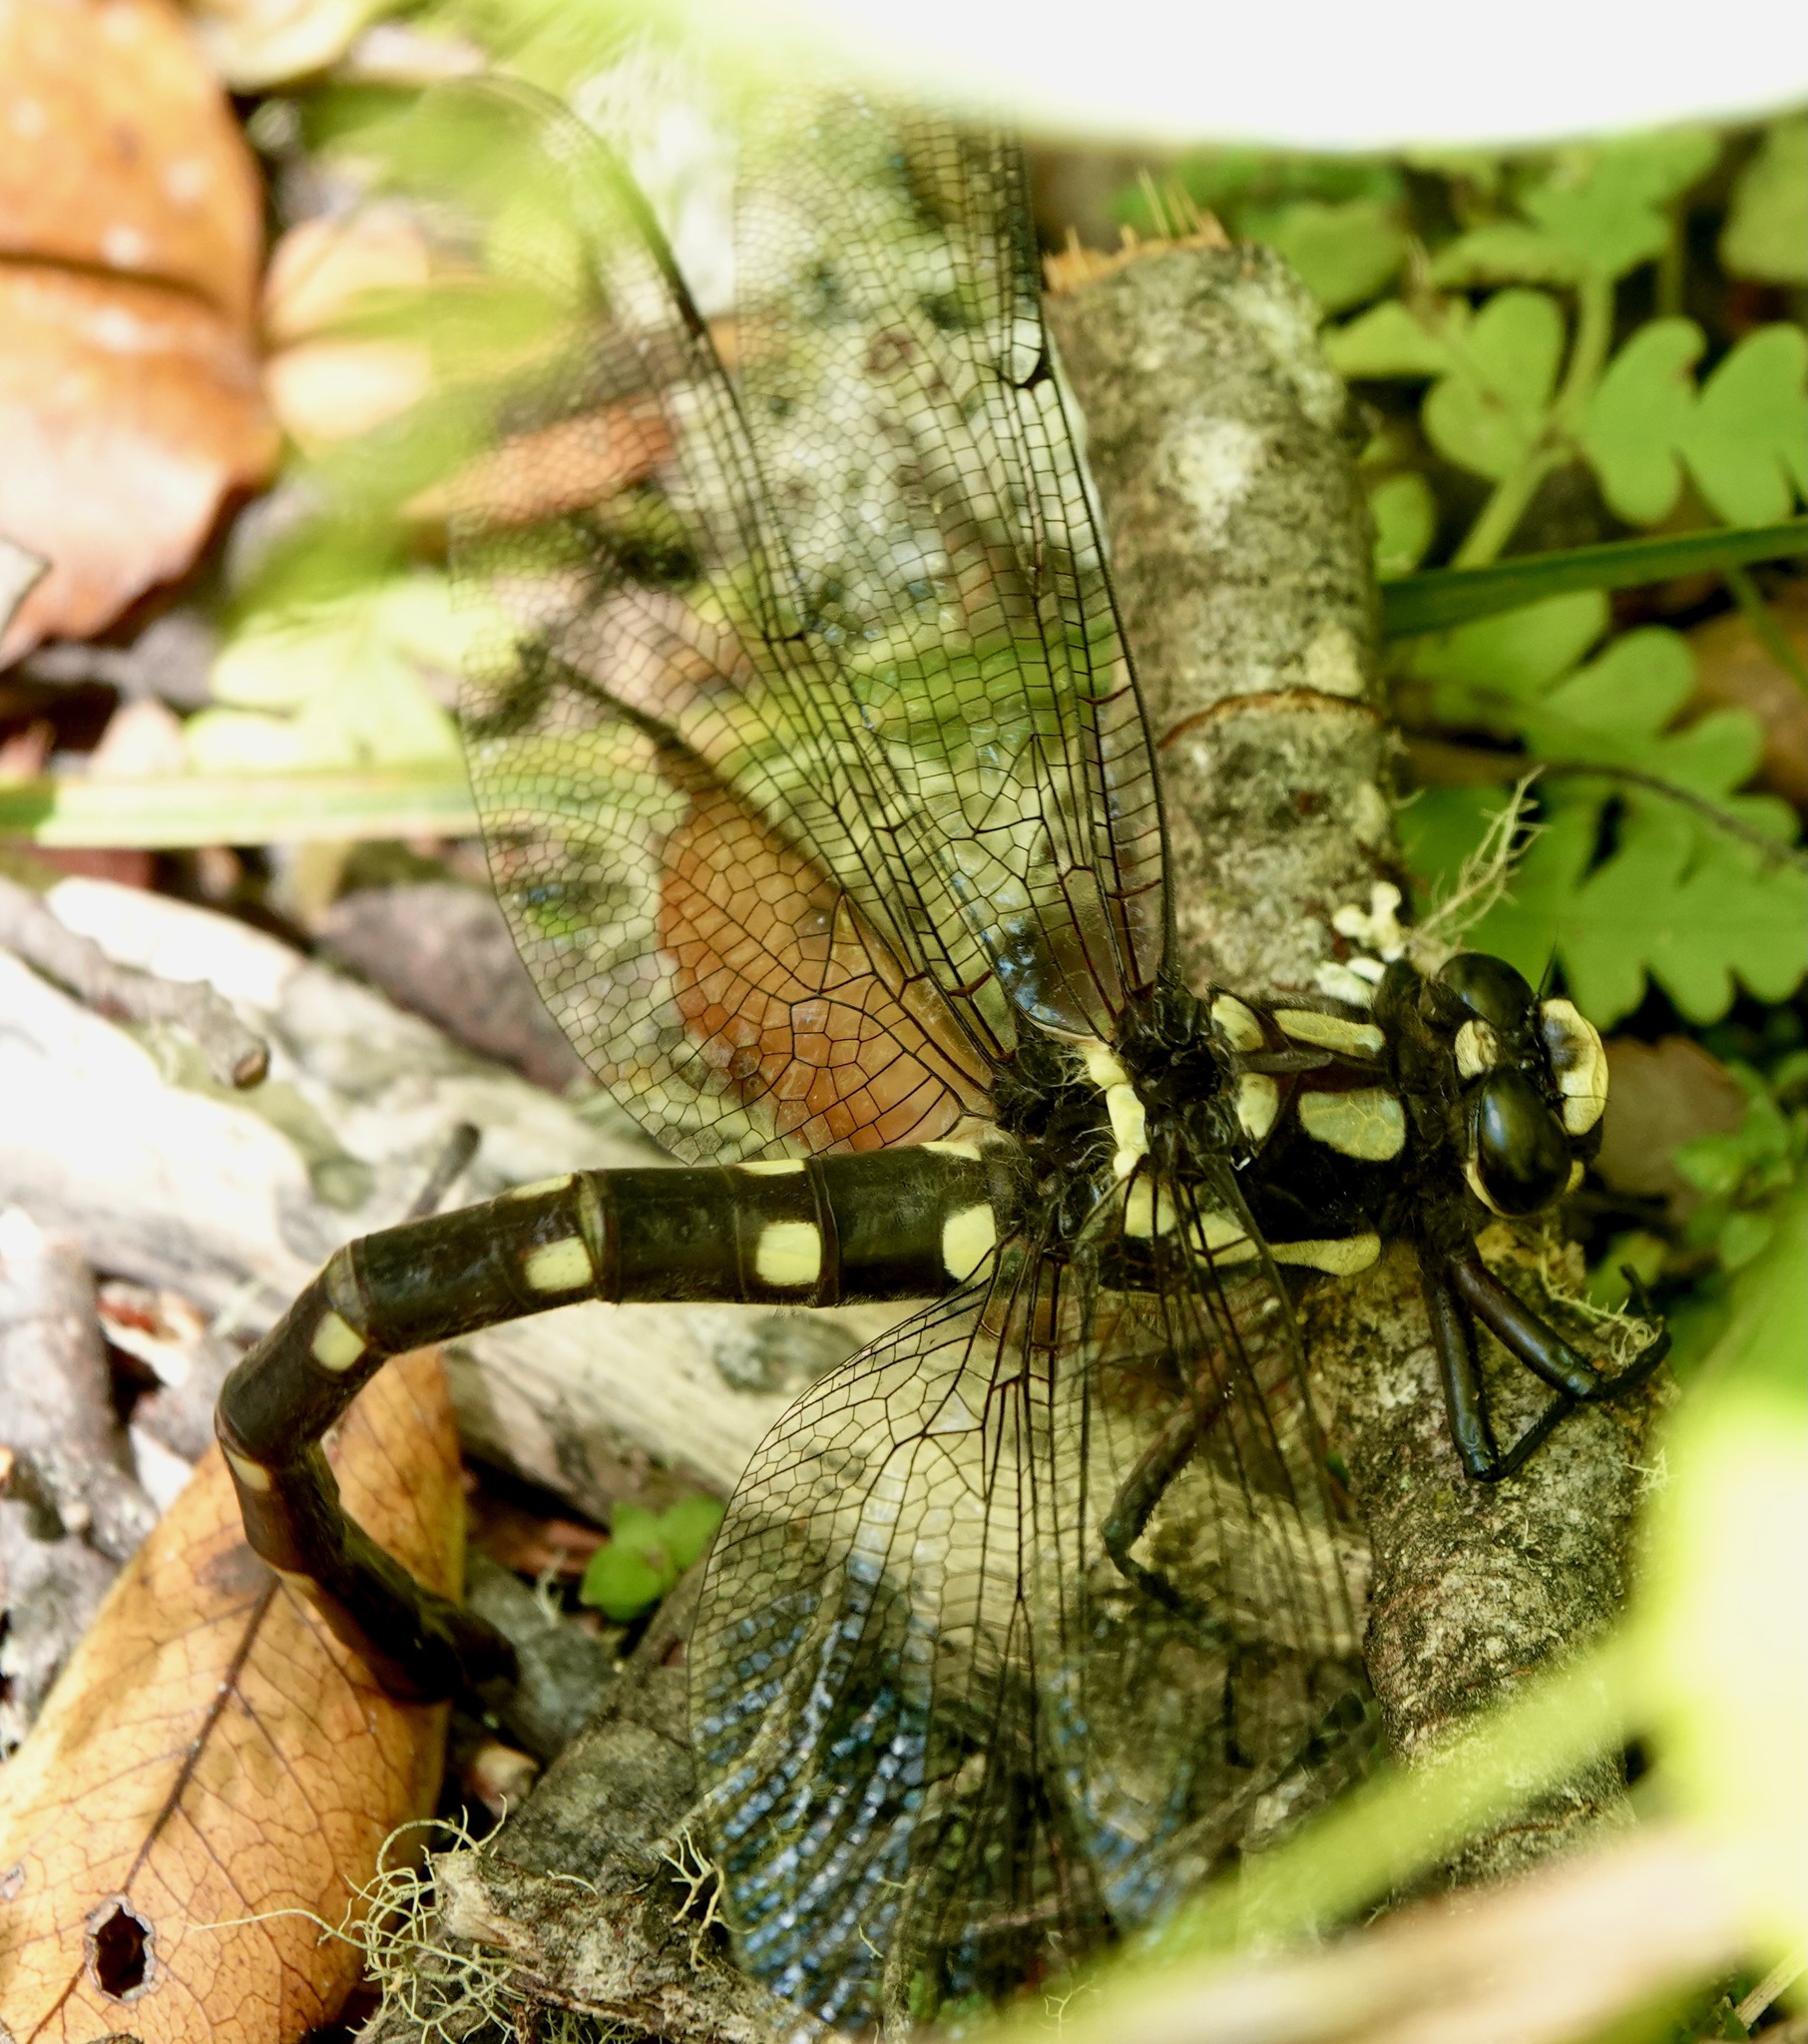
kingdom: Animalia
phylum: Arthropoda
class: Insecta
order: Odonata
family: Petaluridae
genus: Uropetala
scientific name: Uropetala carovei
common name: Bush giant dragonfly
